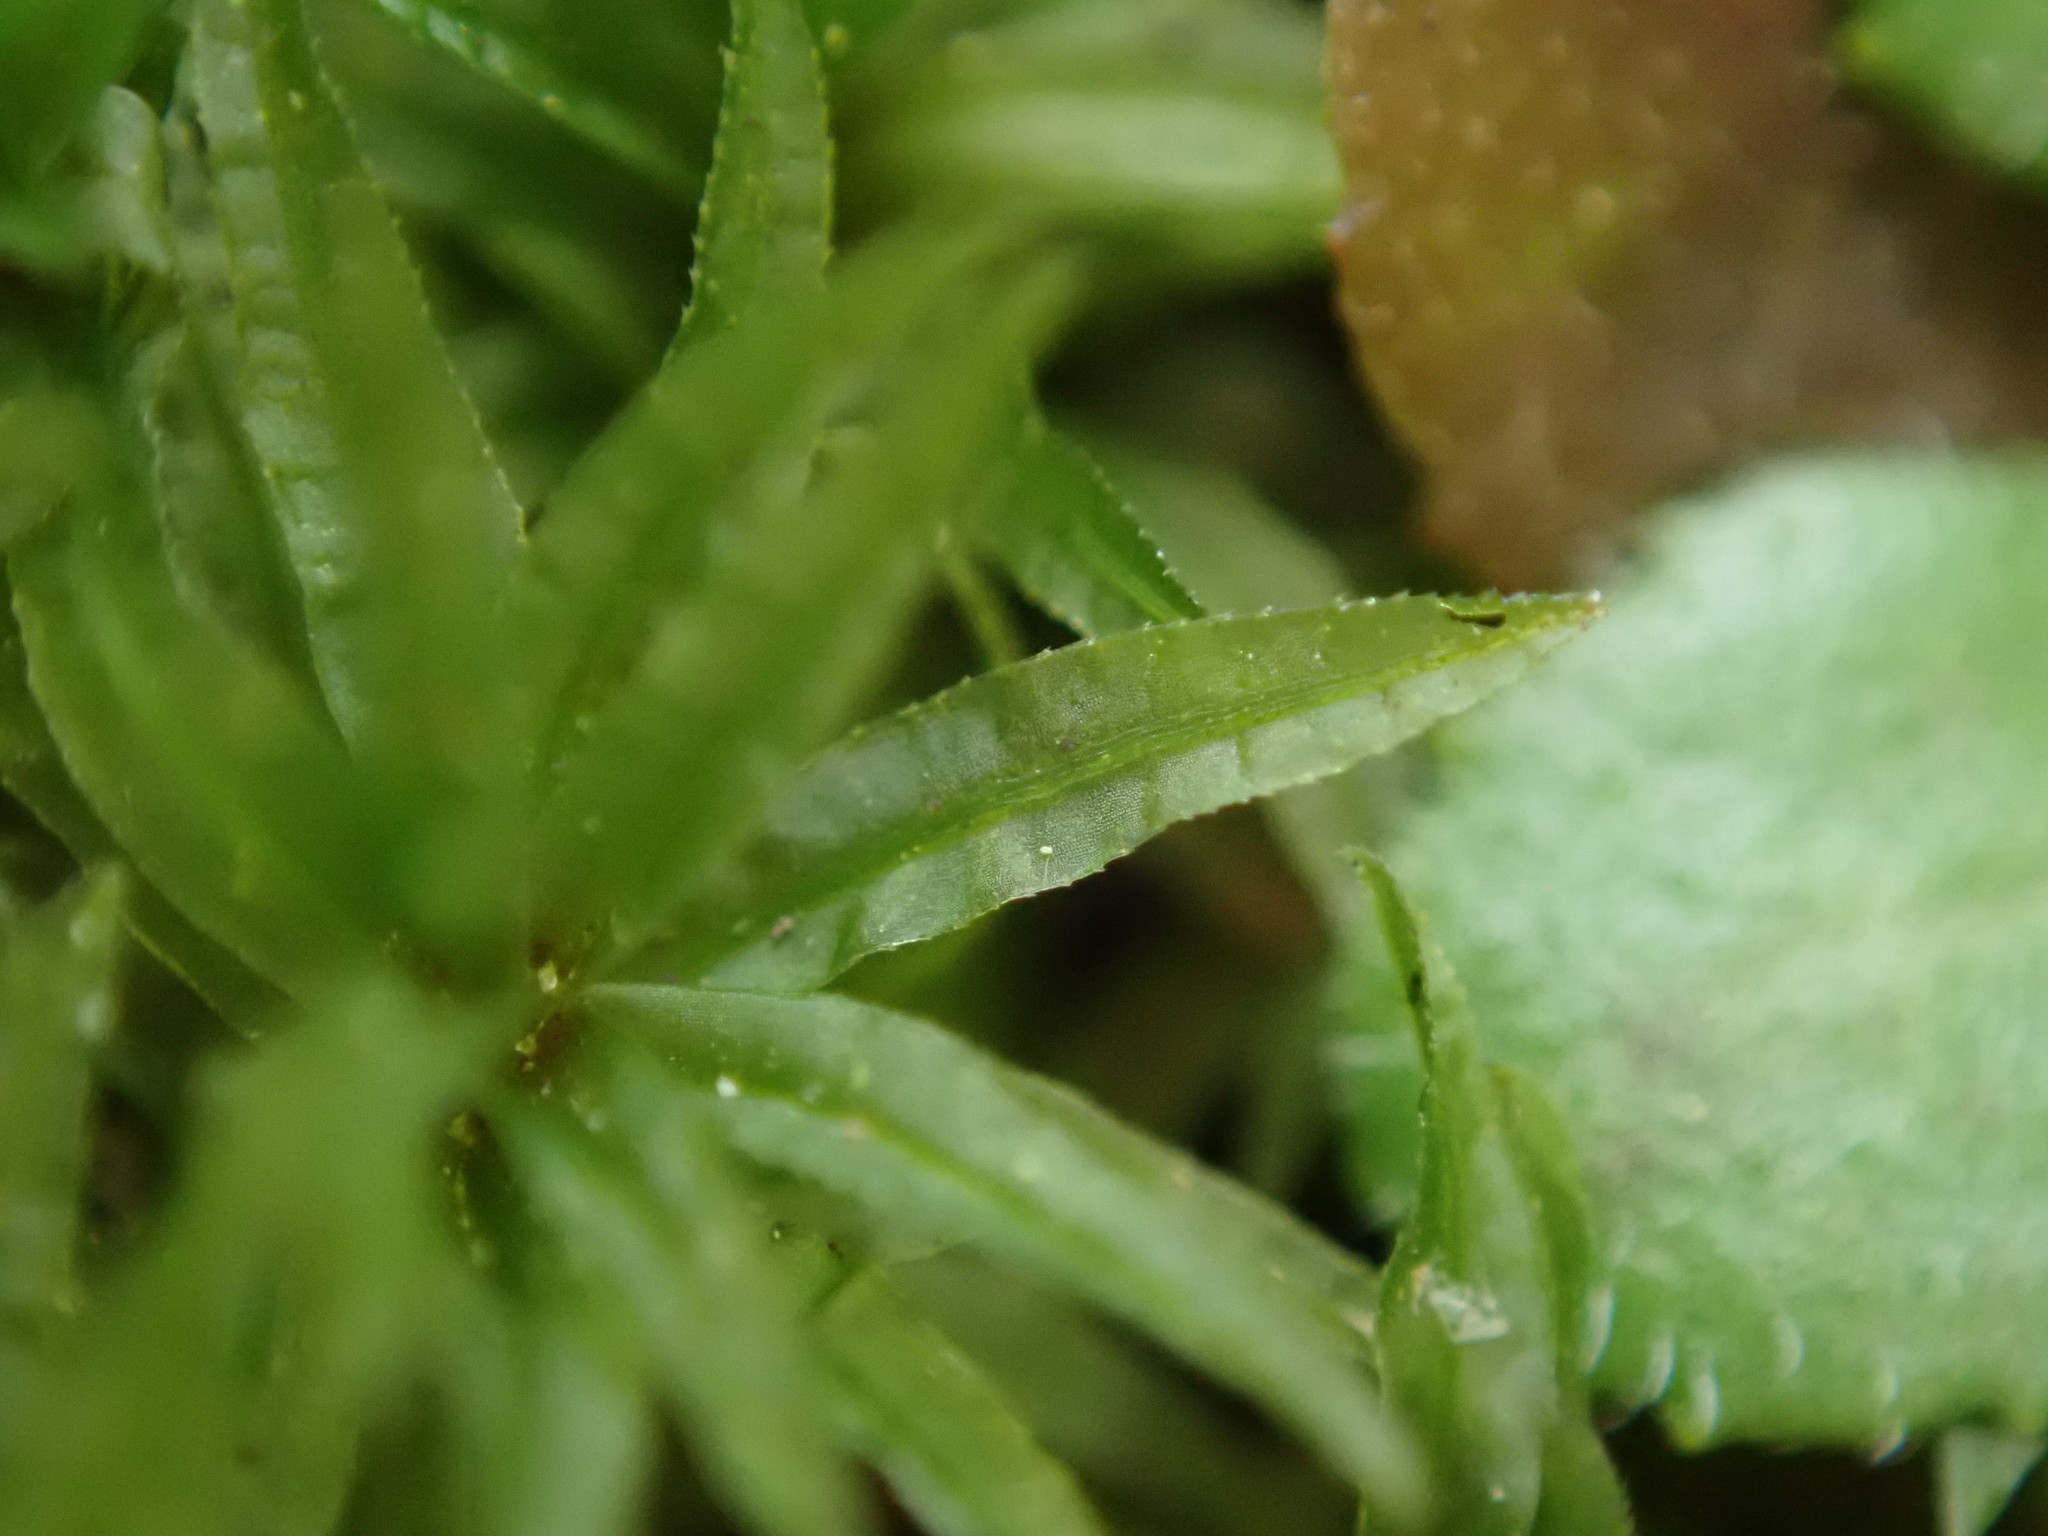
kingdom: Plantae
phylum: Bryophyta
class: Polytrichopsida
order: Polytrichales
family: Polytrichaceae
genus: Atrichum
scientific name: Atrichum undulatum
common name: Common smoothcap
